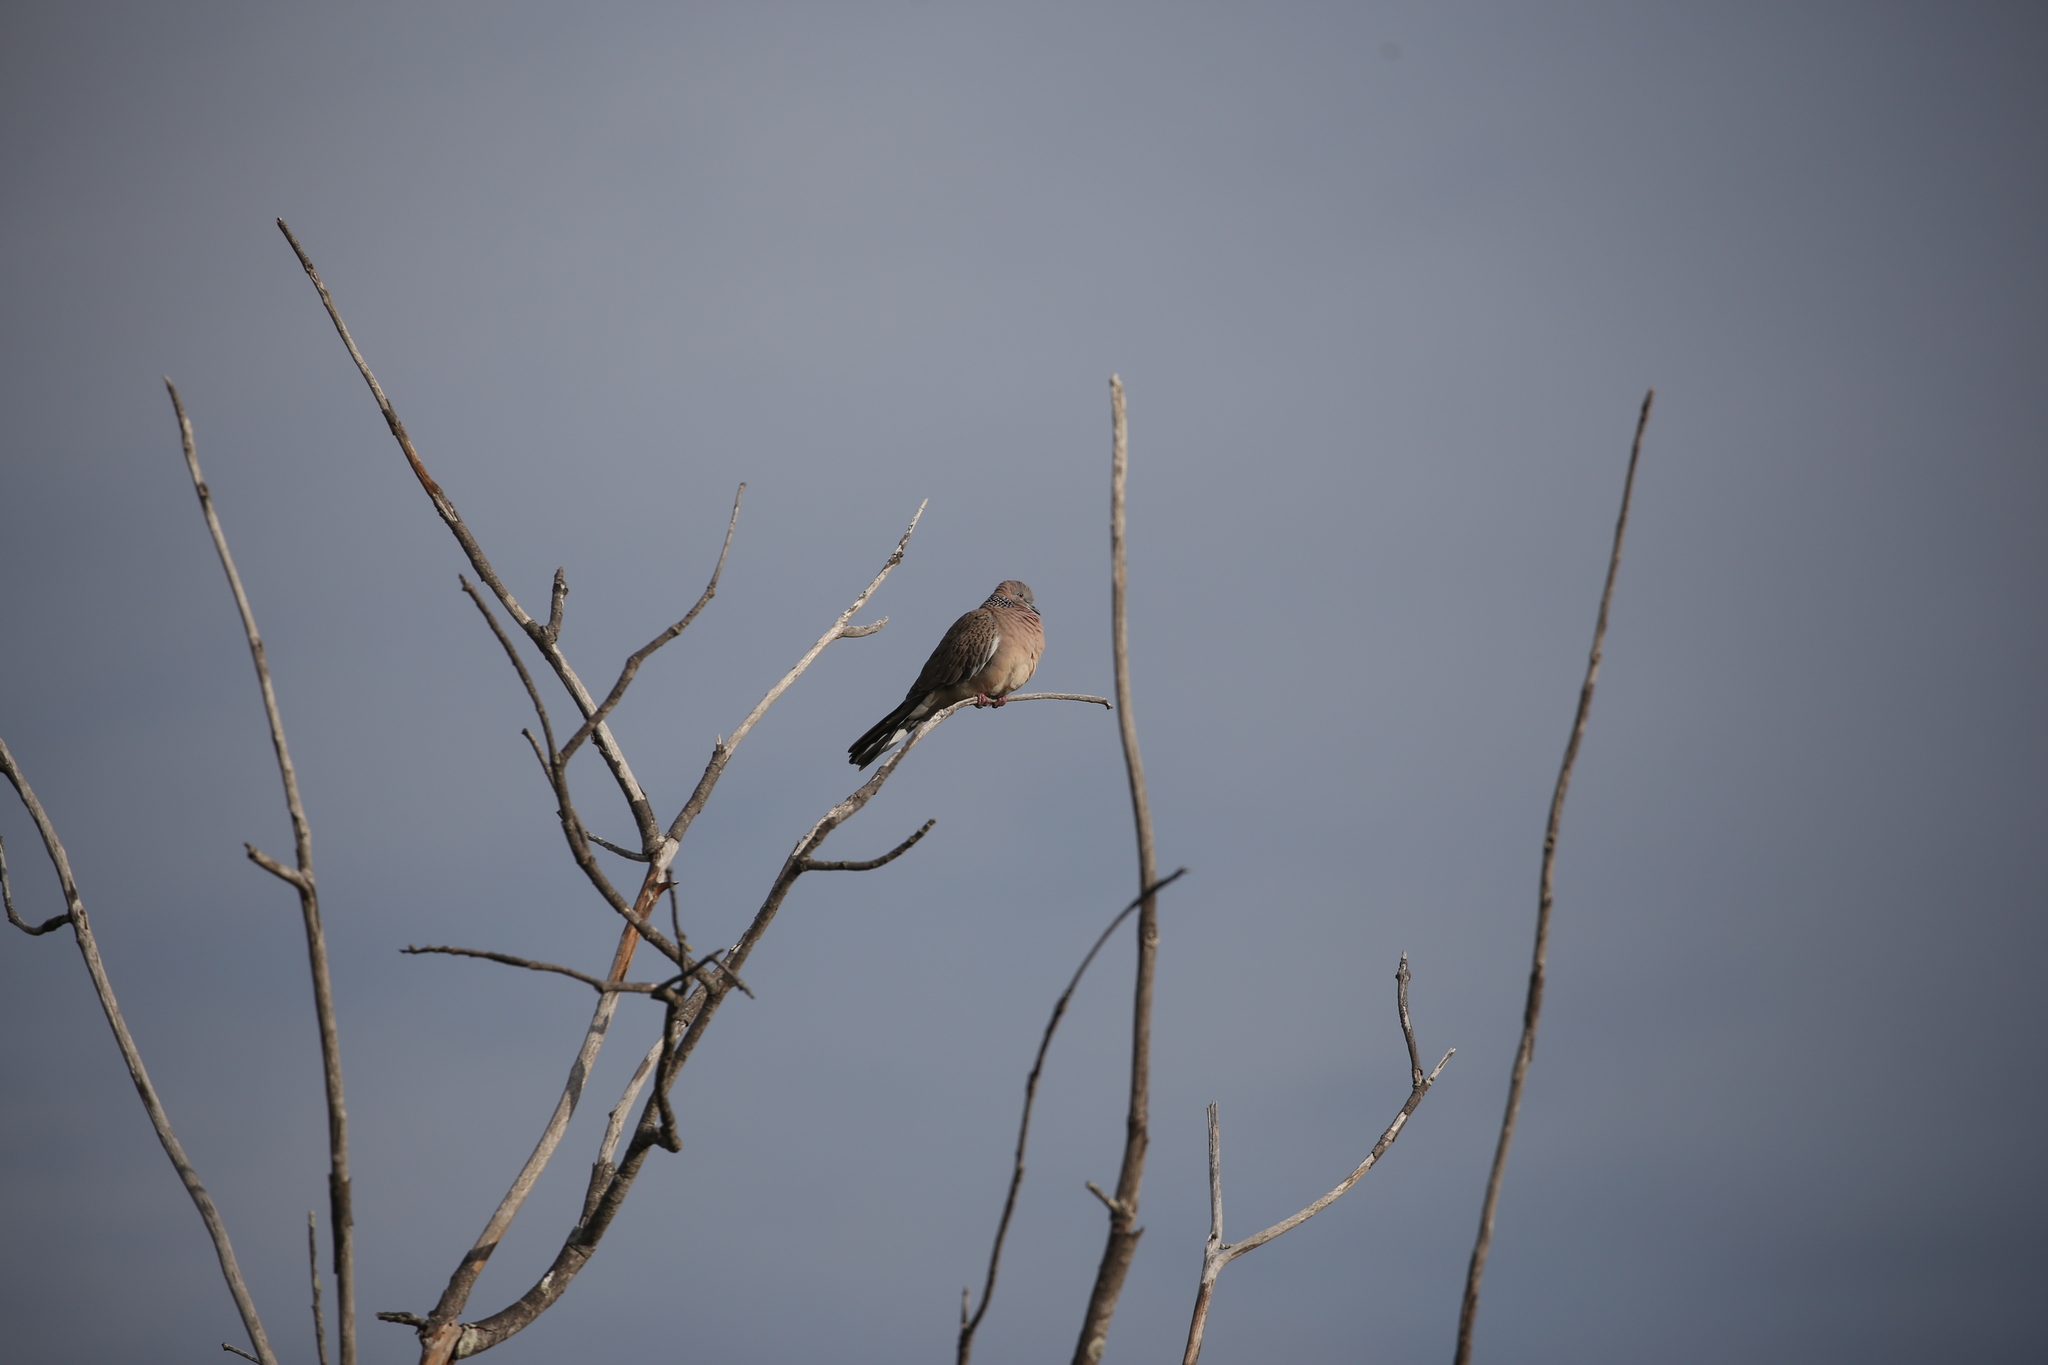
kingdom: Animalia
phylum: Chordata
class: Aves
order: Columbiformes
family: Columbidae
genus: Spilopelia
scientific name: Spilopelia chinensis
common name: Spotted dove
